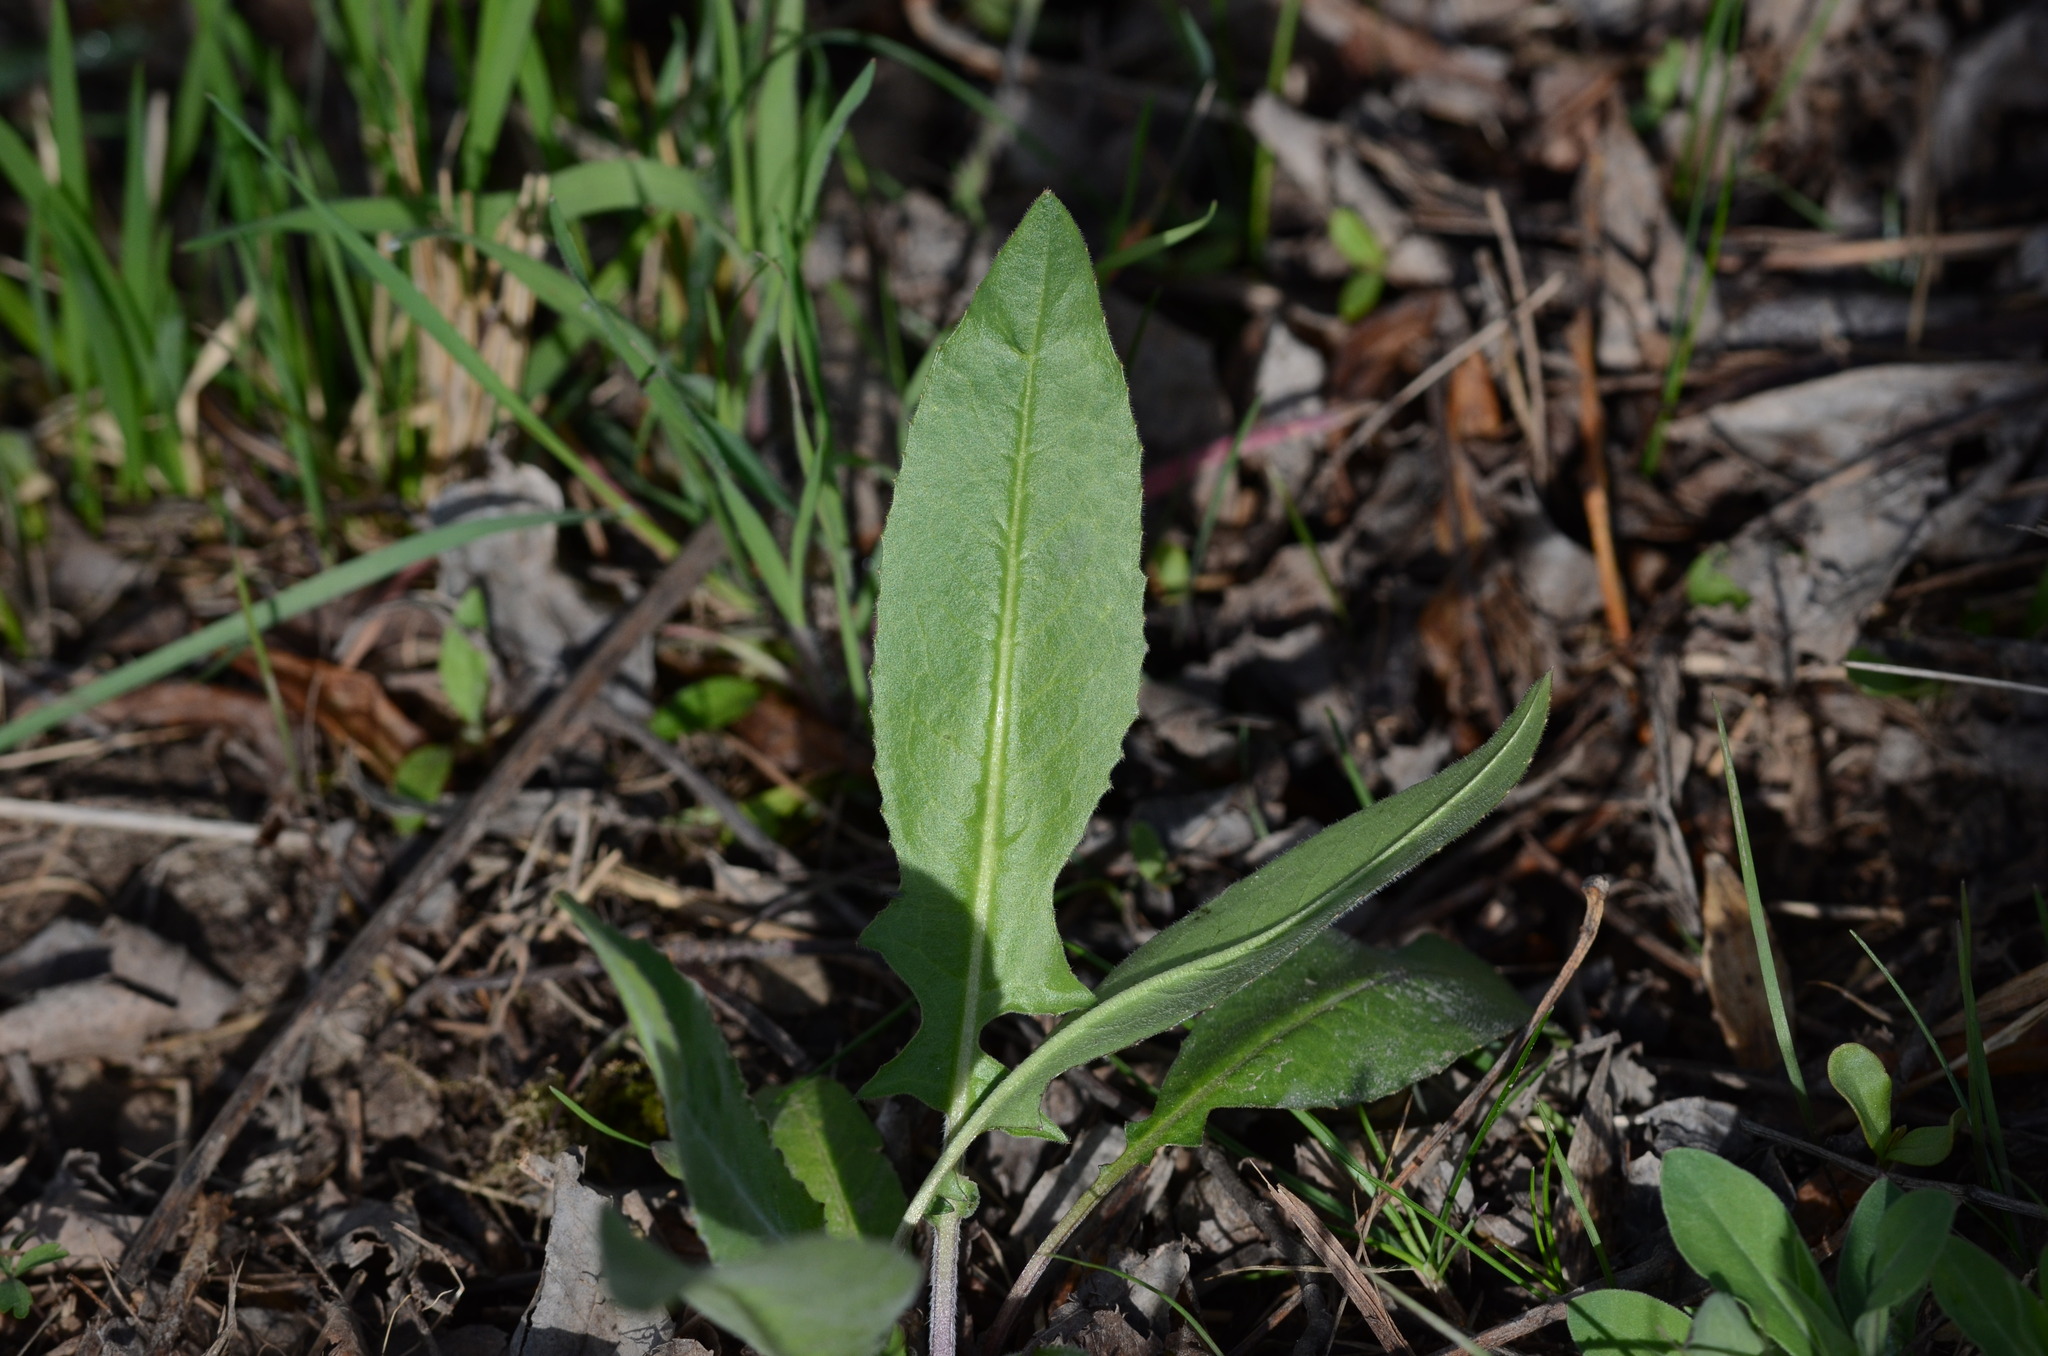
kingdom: Plantae
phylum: Tracheophyta
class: Magnoliopsida
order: Brassicales
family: Brassicaceae
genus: Bunias
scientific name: Bunias orientalis
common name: Warty-cabbage
